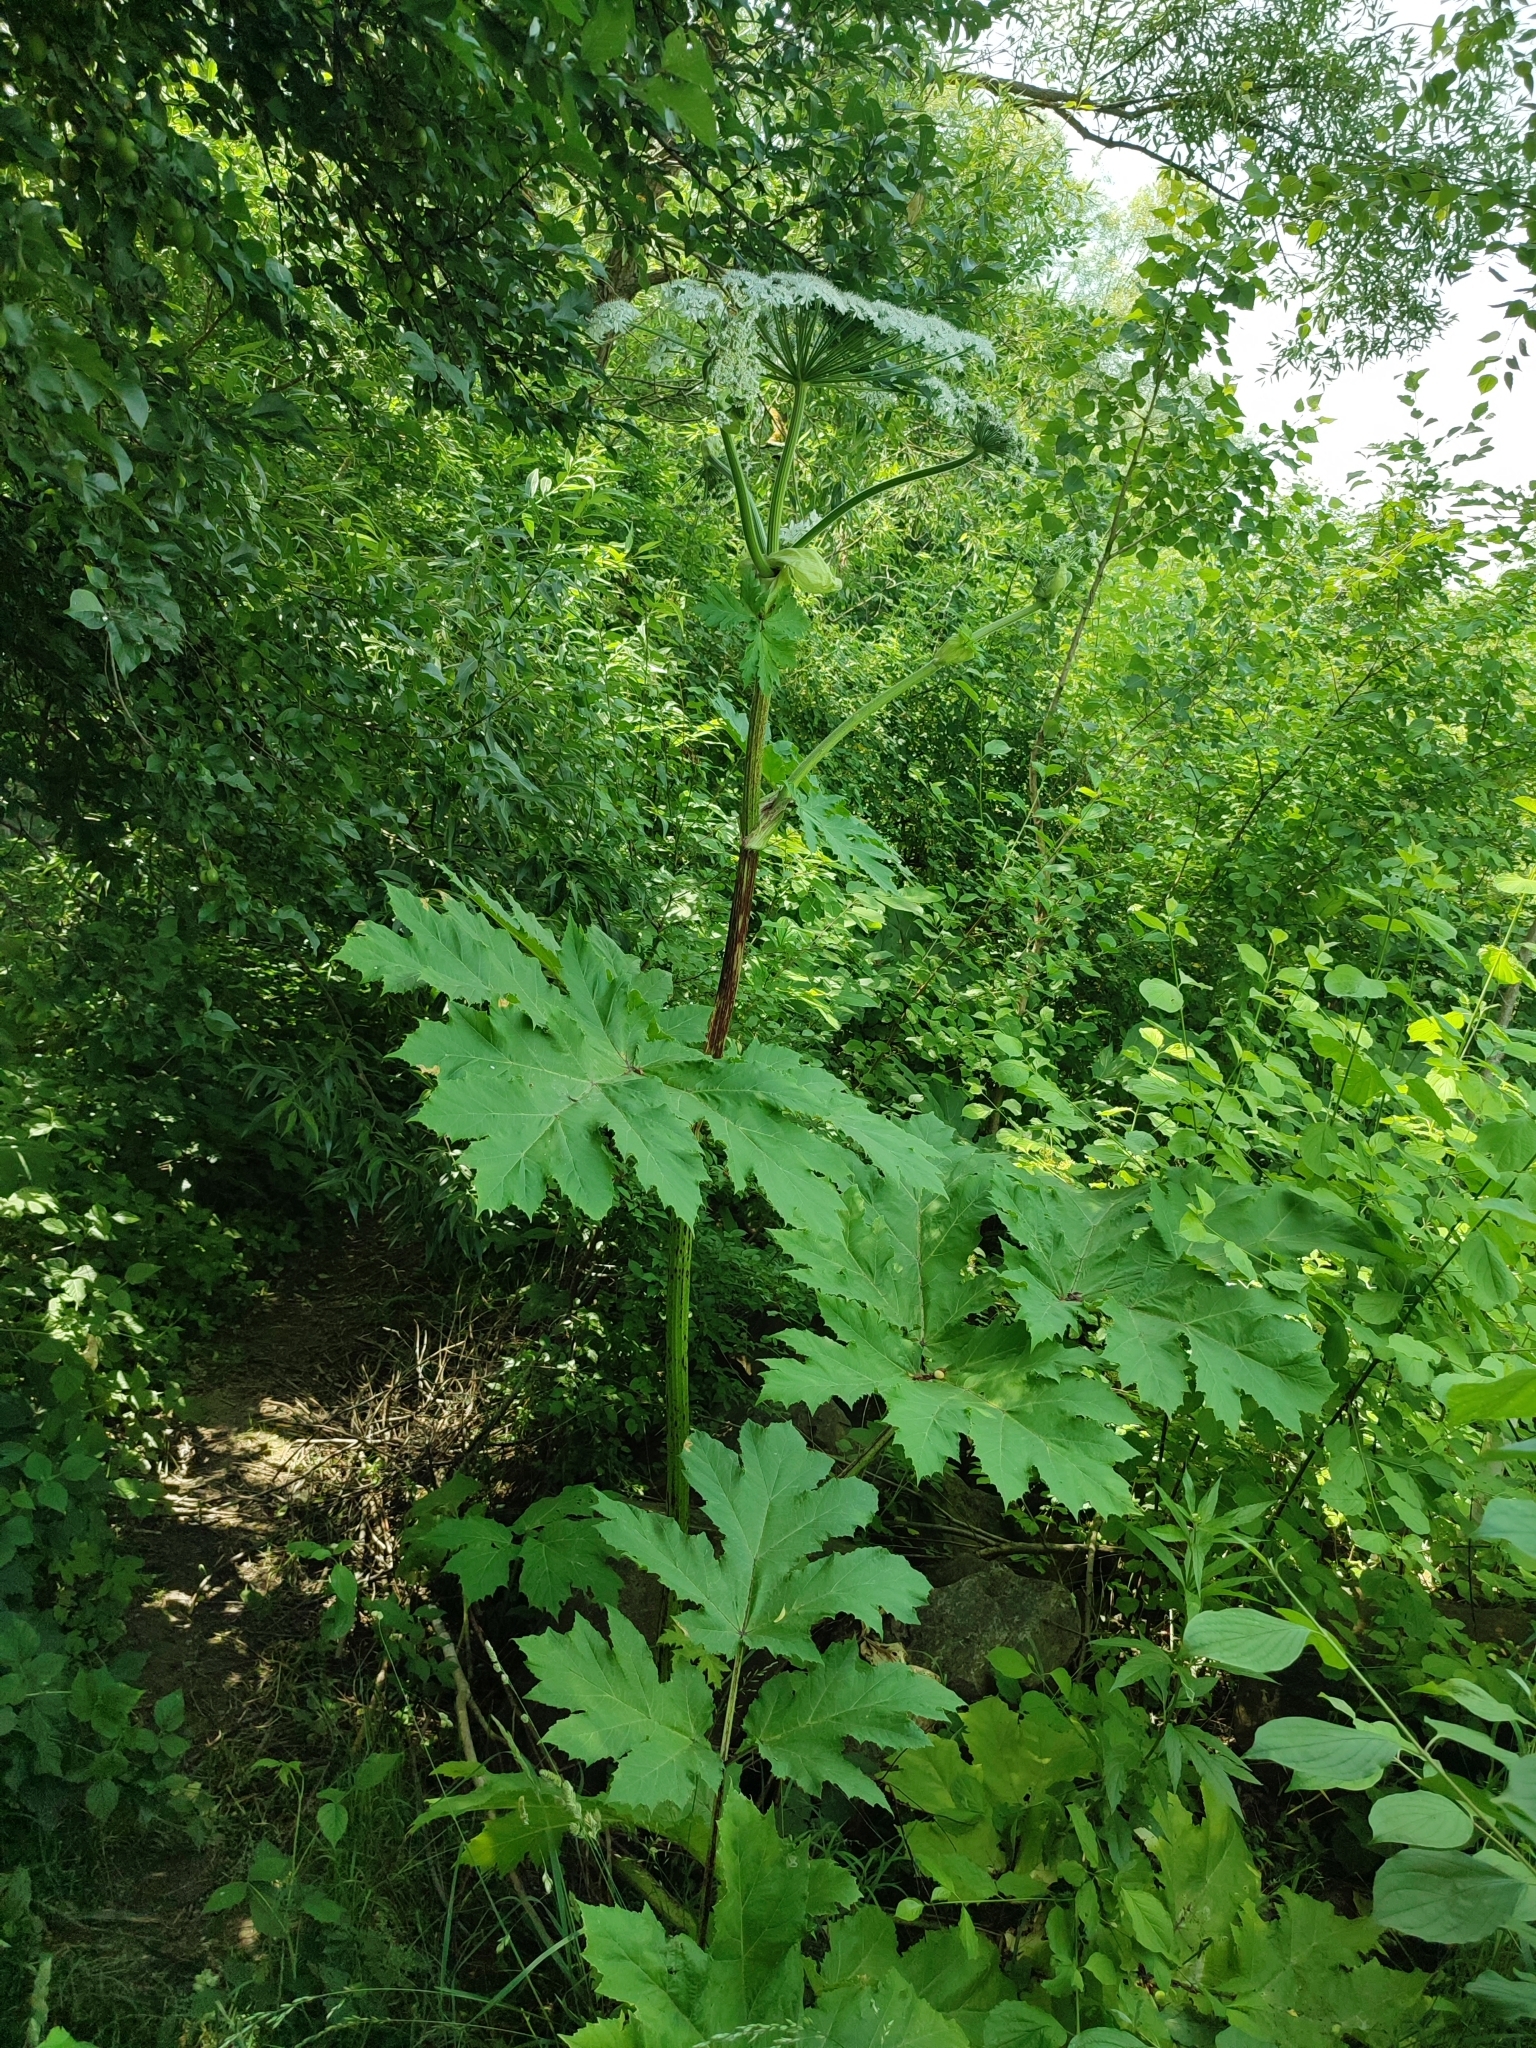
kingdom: Plantae
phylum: Tracheophyta
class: Magnoliopsida
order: Apiales
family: Apiaceae
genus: Heracleum
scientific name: Heracleum sosnowskyi
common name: Sosnowsky's hogweed
